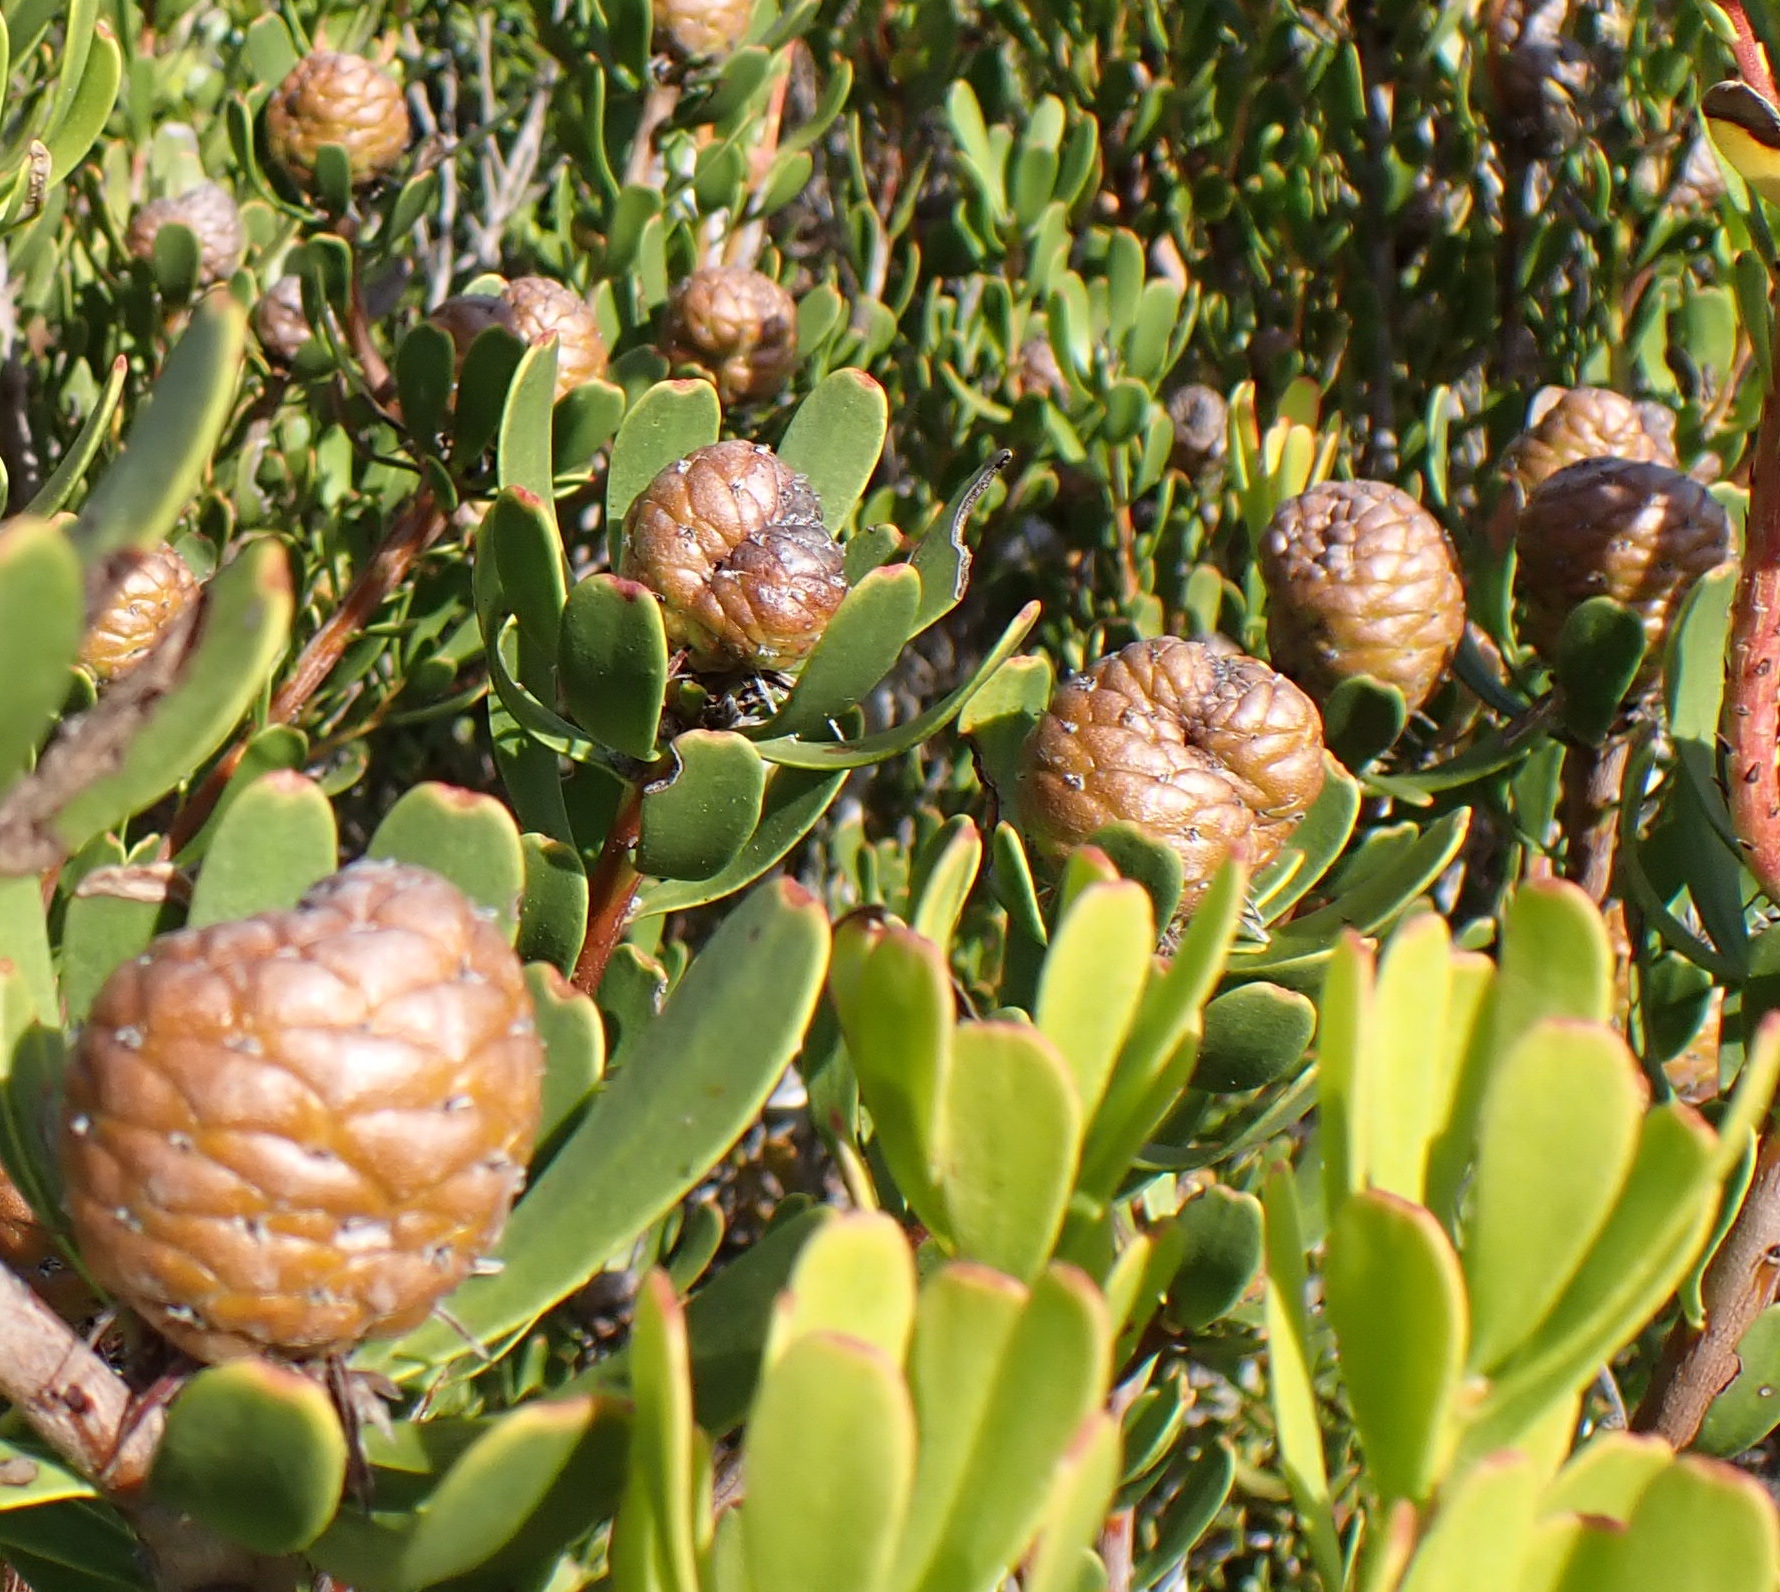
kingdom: Plantae
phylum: Tracheophyta
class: Magnoliopsida
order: Proteales
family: Proteaceae
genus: Leucadendron
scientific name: Leucadendron muirii
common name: Silver-ball conebush
